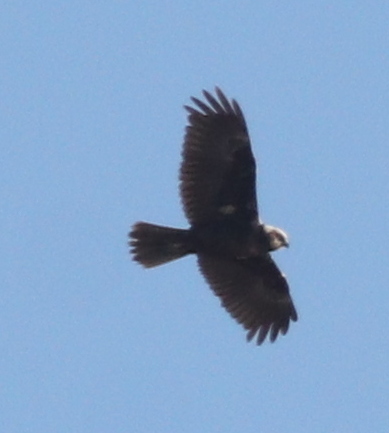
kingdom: Animalia
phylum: Chordata
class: Aves
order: Accipitriformes
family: Accipitridae
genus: Circus
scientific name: Circus aeruginosus
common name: Western marsh harrier
